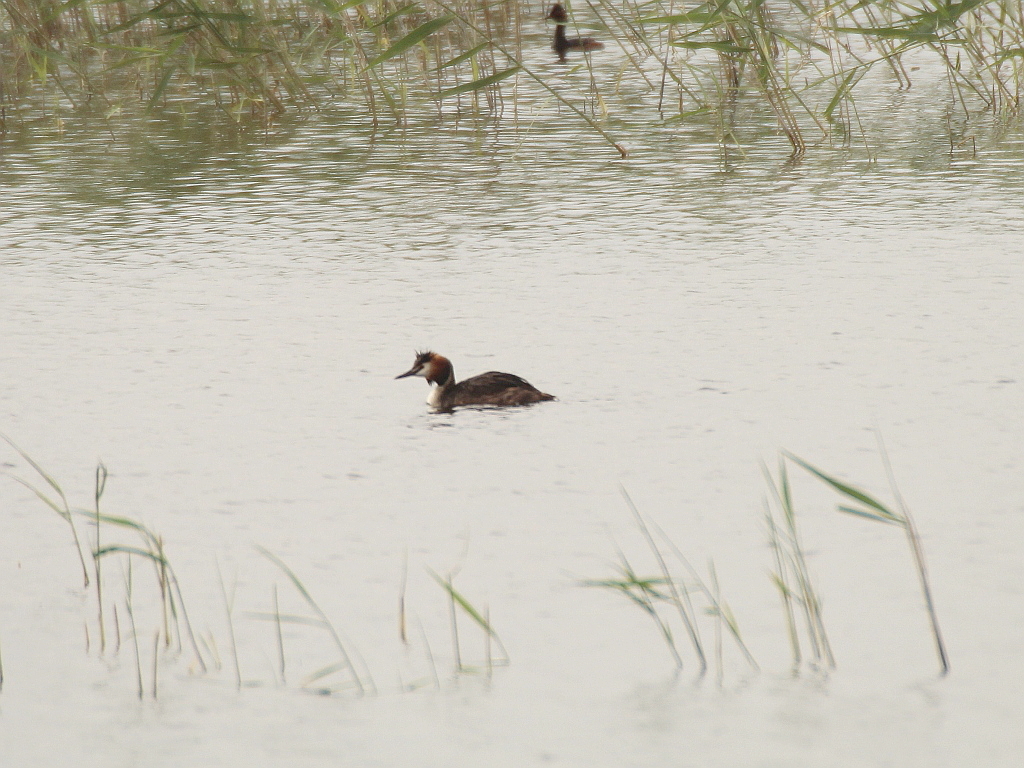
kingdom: Animalia
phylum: Chordata
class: Aves
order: Podicipediformes
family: Podicipedidae
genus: Podiceps
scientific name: Podiceps cristatus
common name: Great crested grebe
